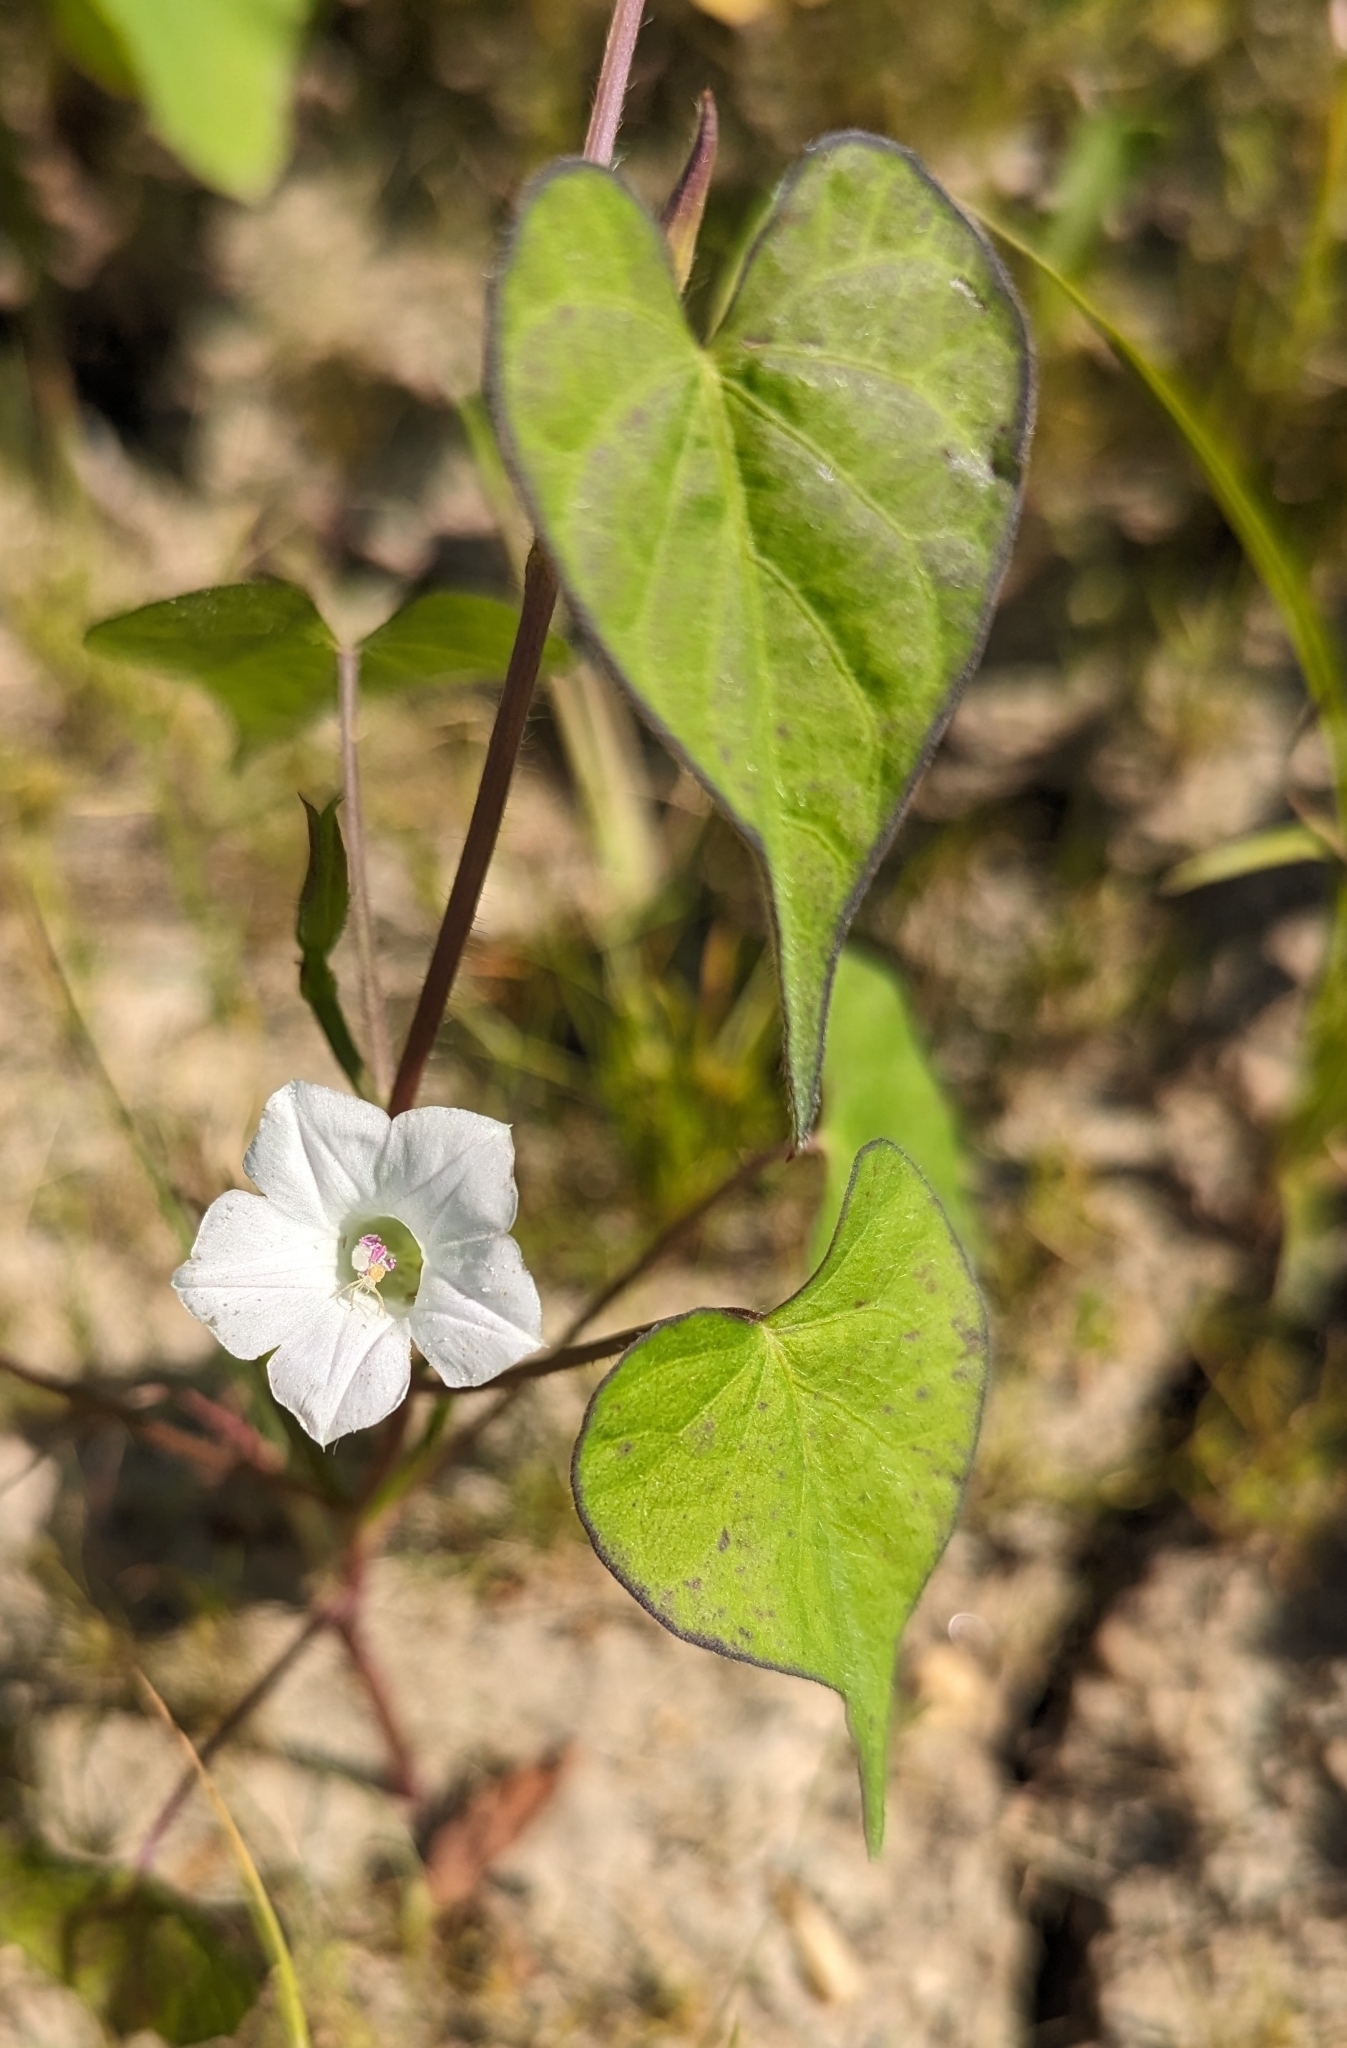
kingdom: Plantae
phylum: Tracheophyta
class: Magnoliopsida
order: Solanales
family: Convolvulaceae
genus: Ipomoea
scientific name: Ipomoea lacunosa
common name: White morning-glory
